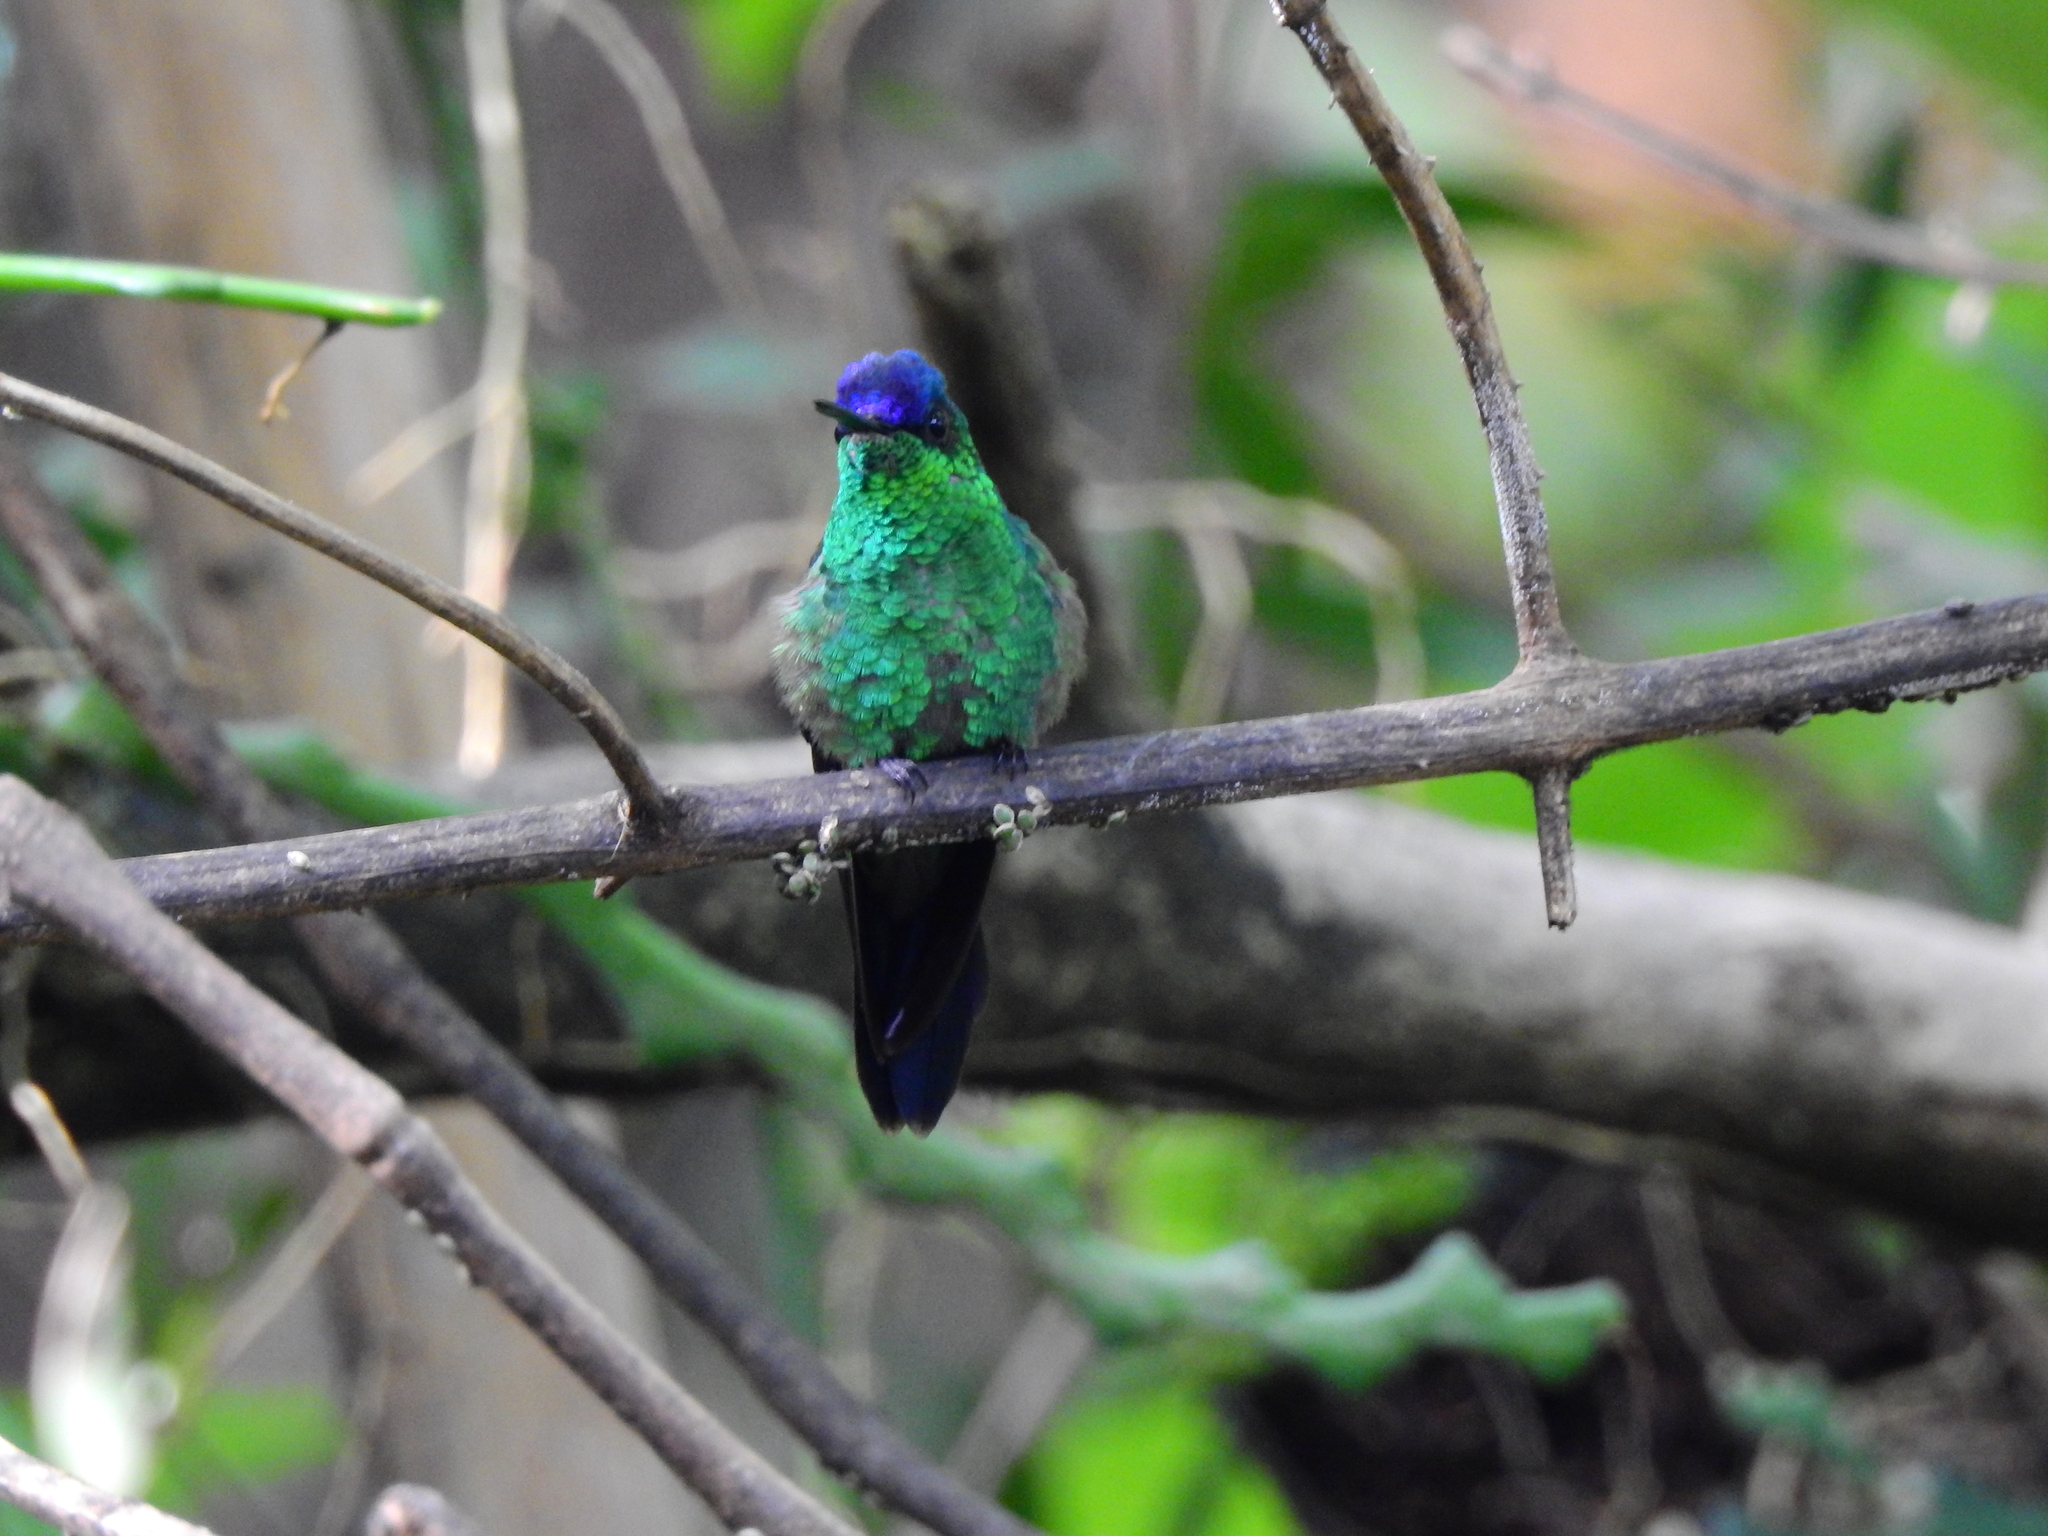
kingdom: Animalia
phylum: Chordata
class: Aves
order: Apodiformes
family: Trochilidae
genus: Thalurania
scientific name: Thalurania glaucopis
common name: Violet-capped woodnymph
